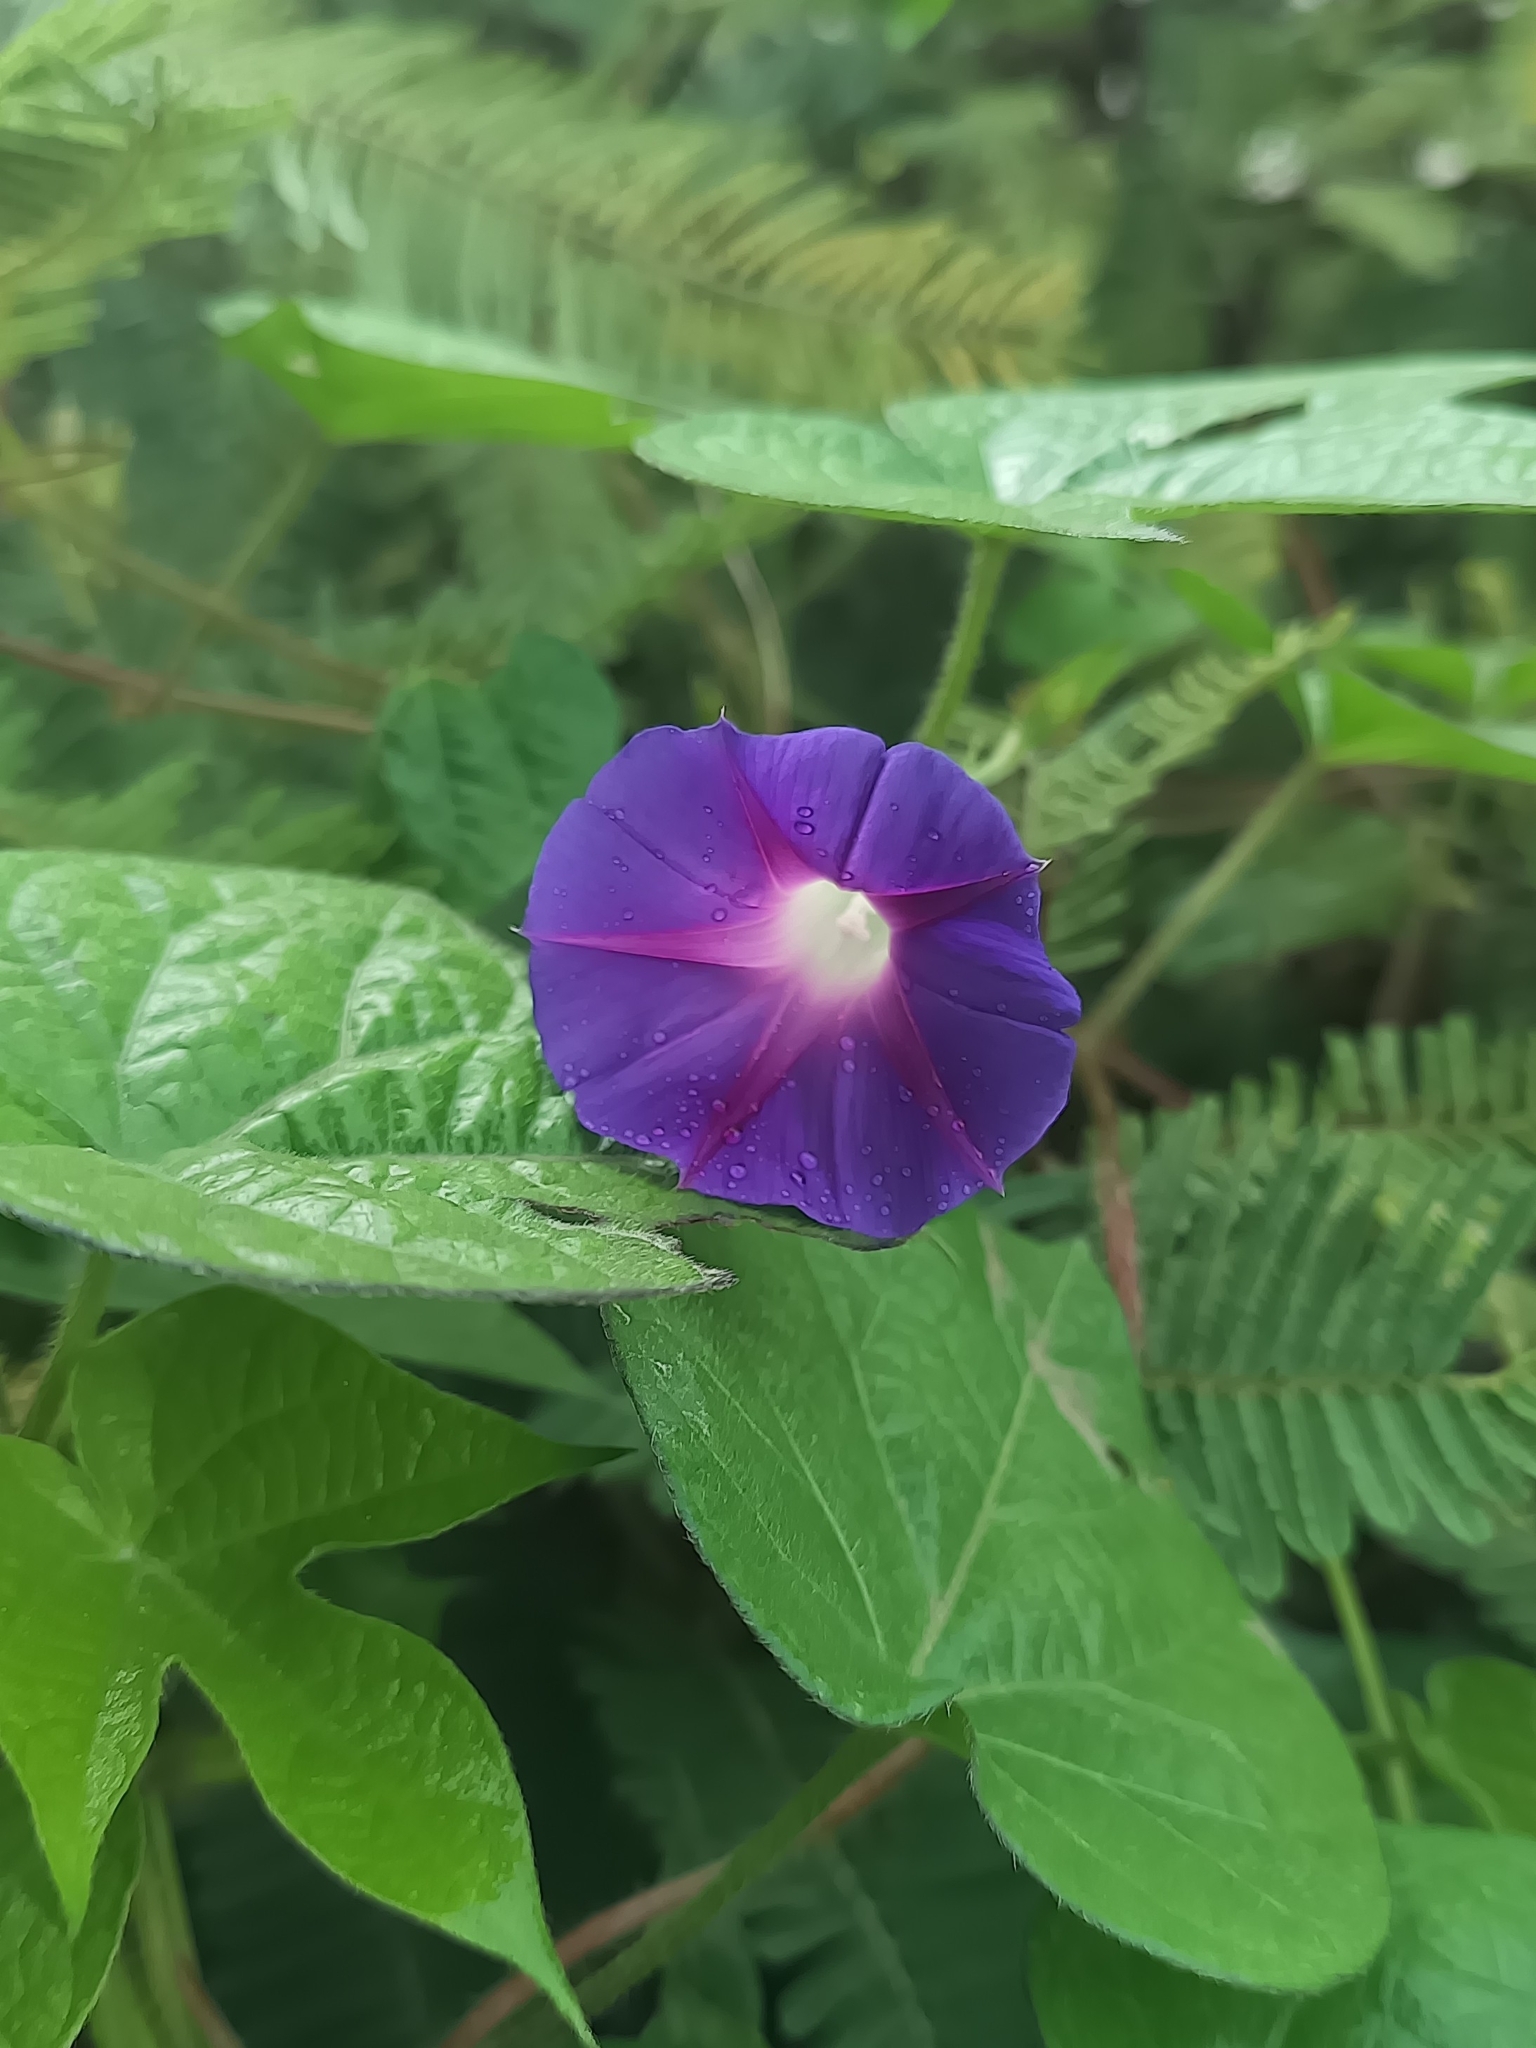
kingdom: Plantae
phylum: Tracheophyta
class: Magnoliopsida
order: Solanales
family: Convolvulaceae
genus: Ipomoea
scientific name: Ipomoea purpurea
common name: Common morning-glory
